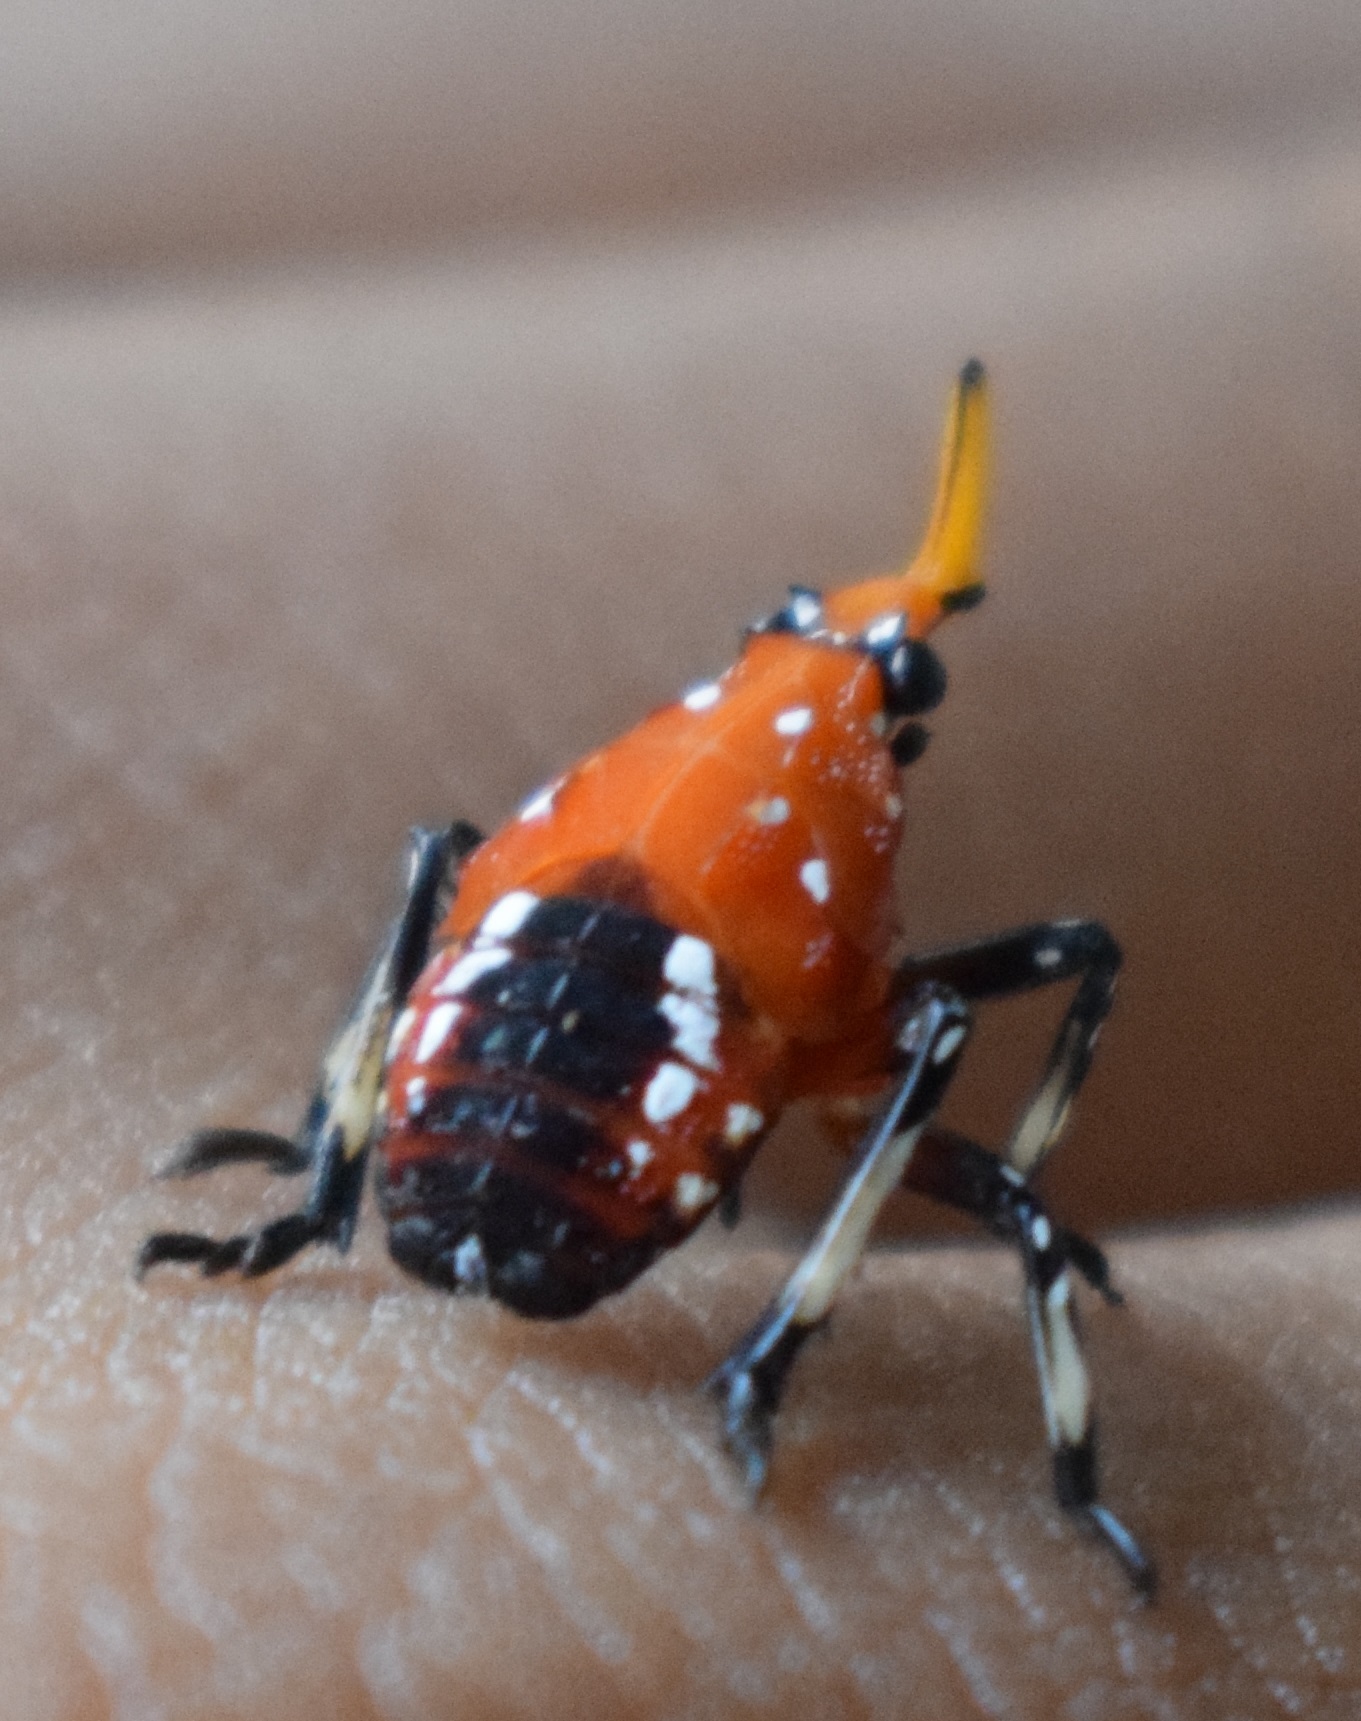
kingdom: Animalia
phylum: Arthropoda
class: Insecta
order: Hemiptera
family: Fulgoridae
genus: Kalidasa
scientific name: Kalidasa lanata
